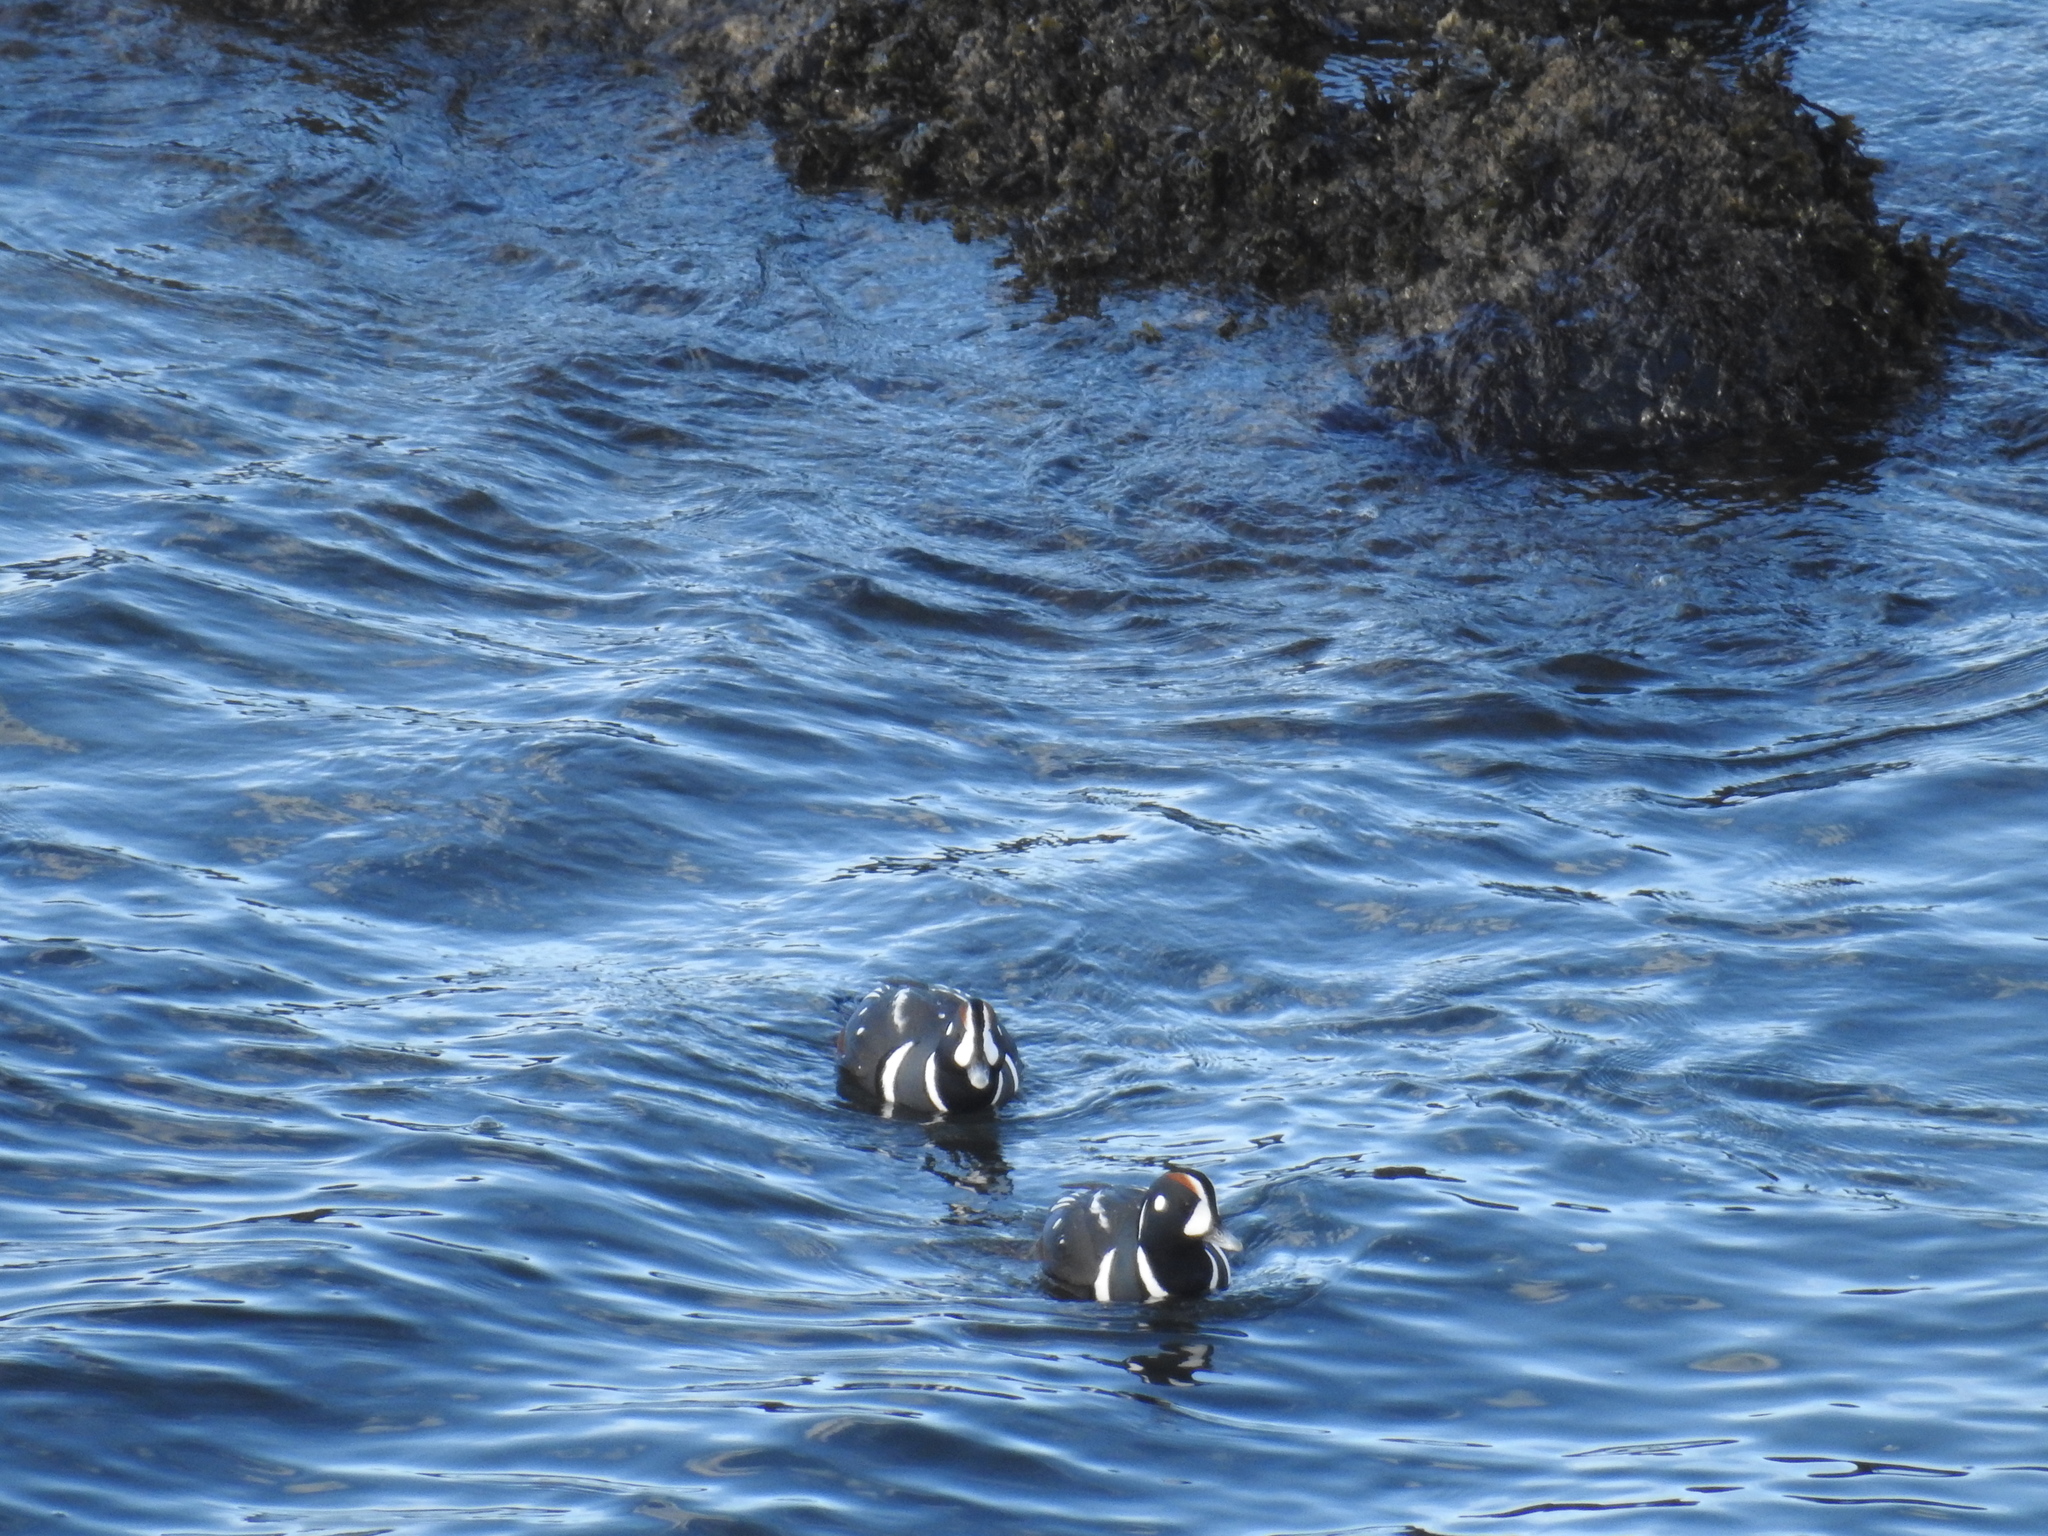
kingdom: Animalia
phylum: Chordata
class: Aves
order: Anseriformes
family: Anatidae
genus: Histrionicus
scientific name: Histrionicus histrionicus
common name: Harlequin duck
